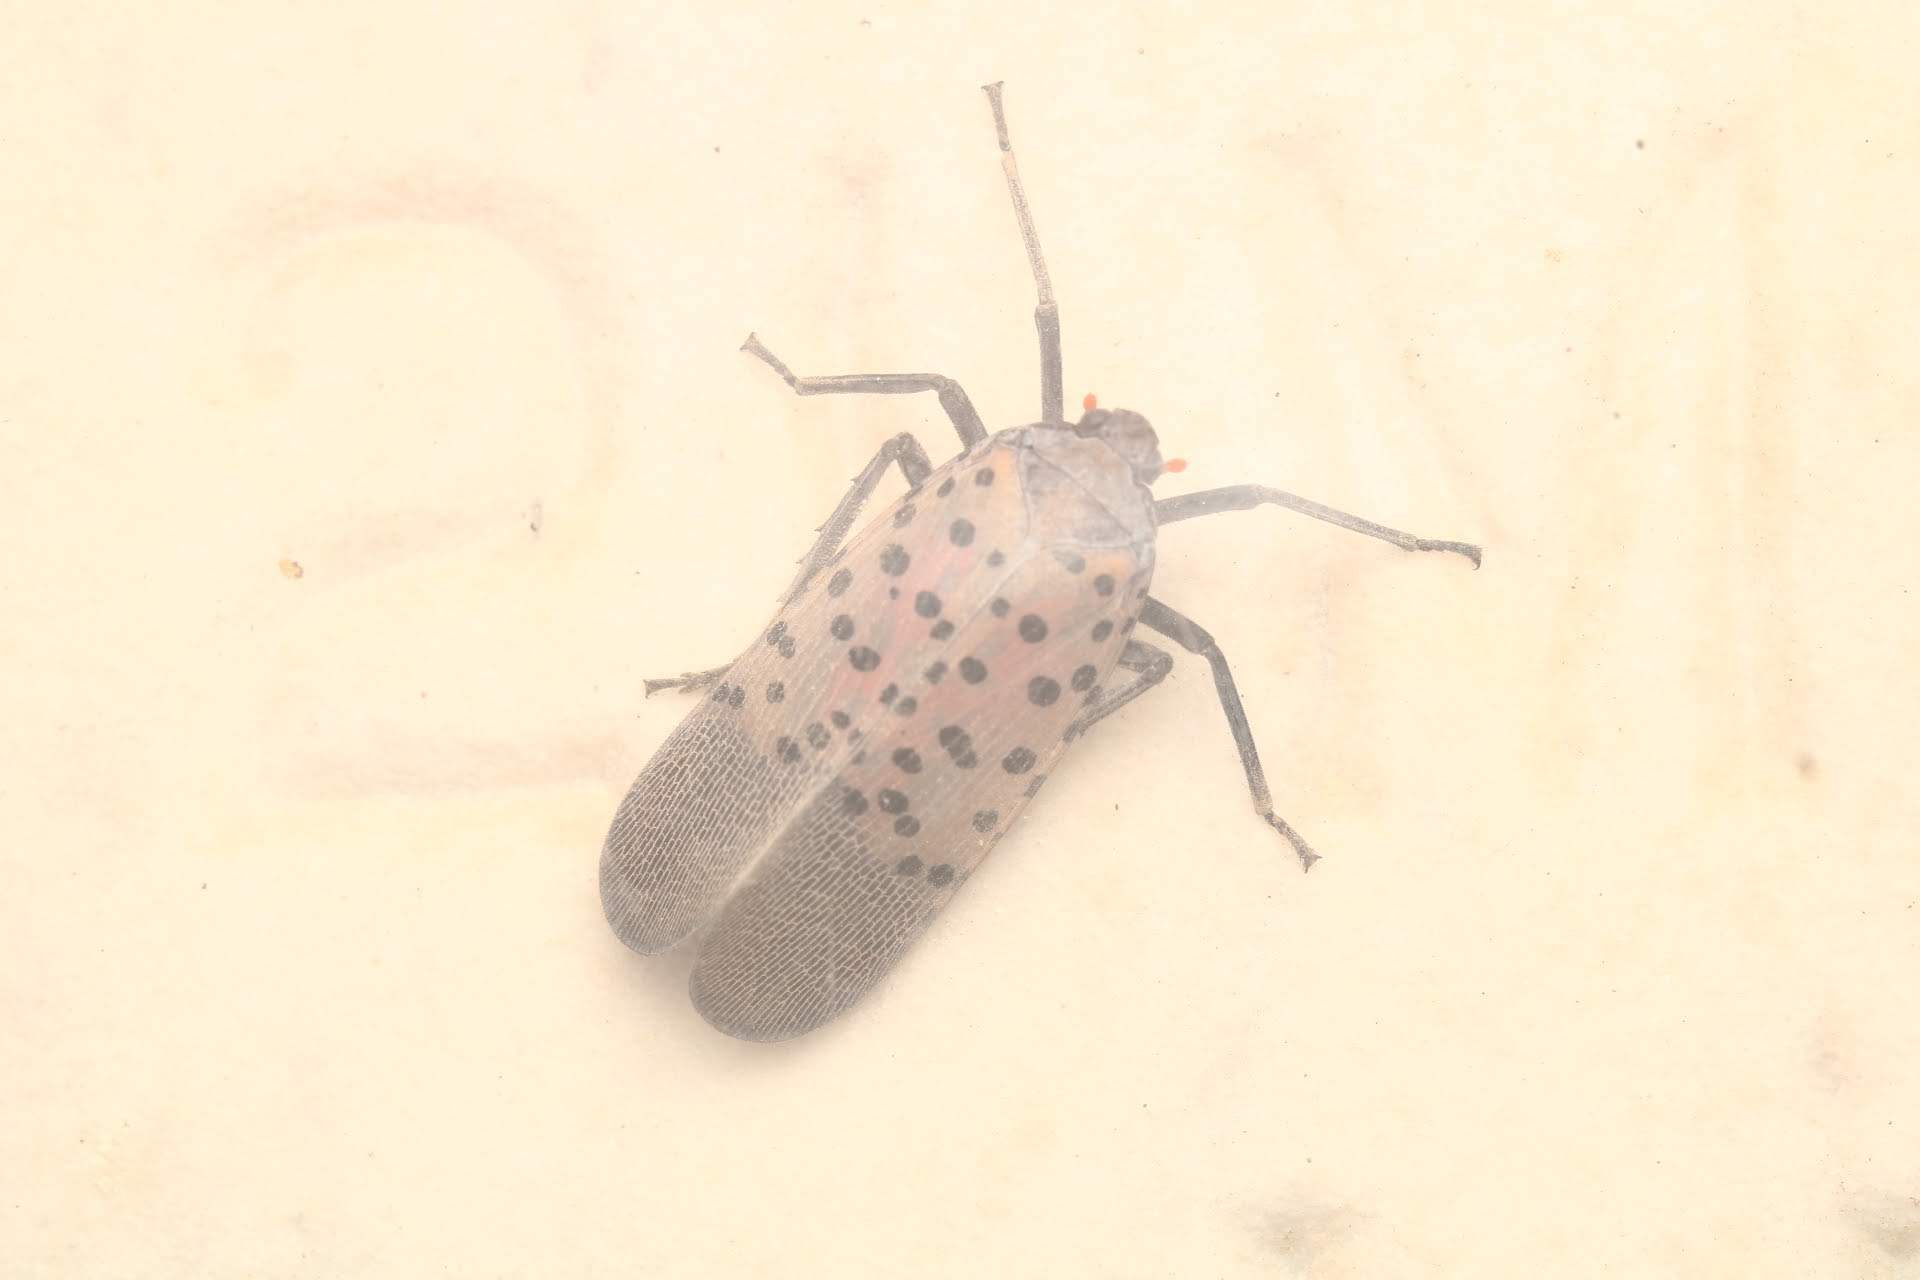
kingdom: Animalia
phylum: Arthropoda
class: Insecta
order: Hemiptera
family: Fulgoridae
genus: Lycorma
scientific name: Lycorma delicatula
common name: Spotted lanternfly
